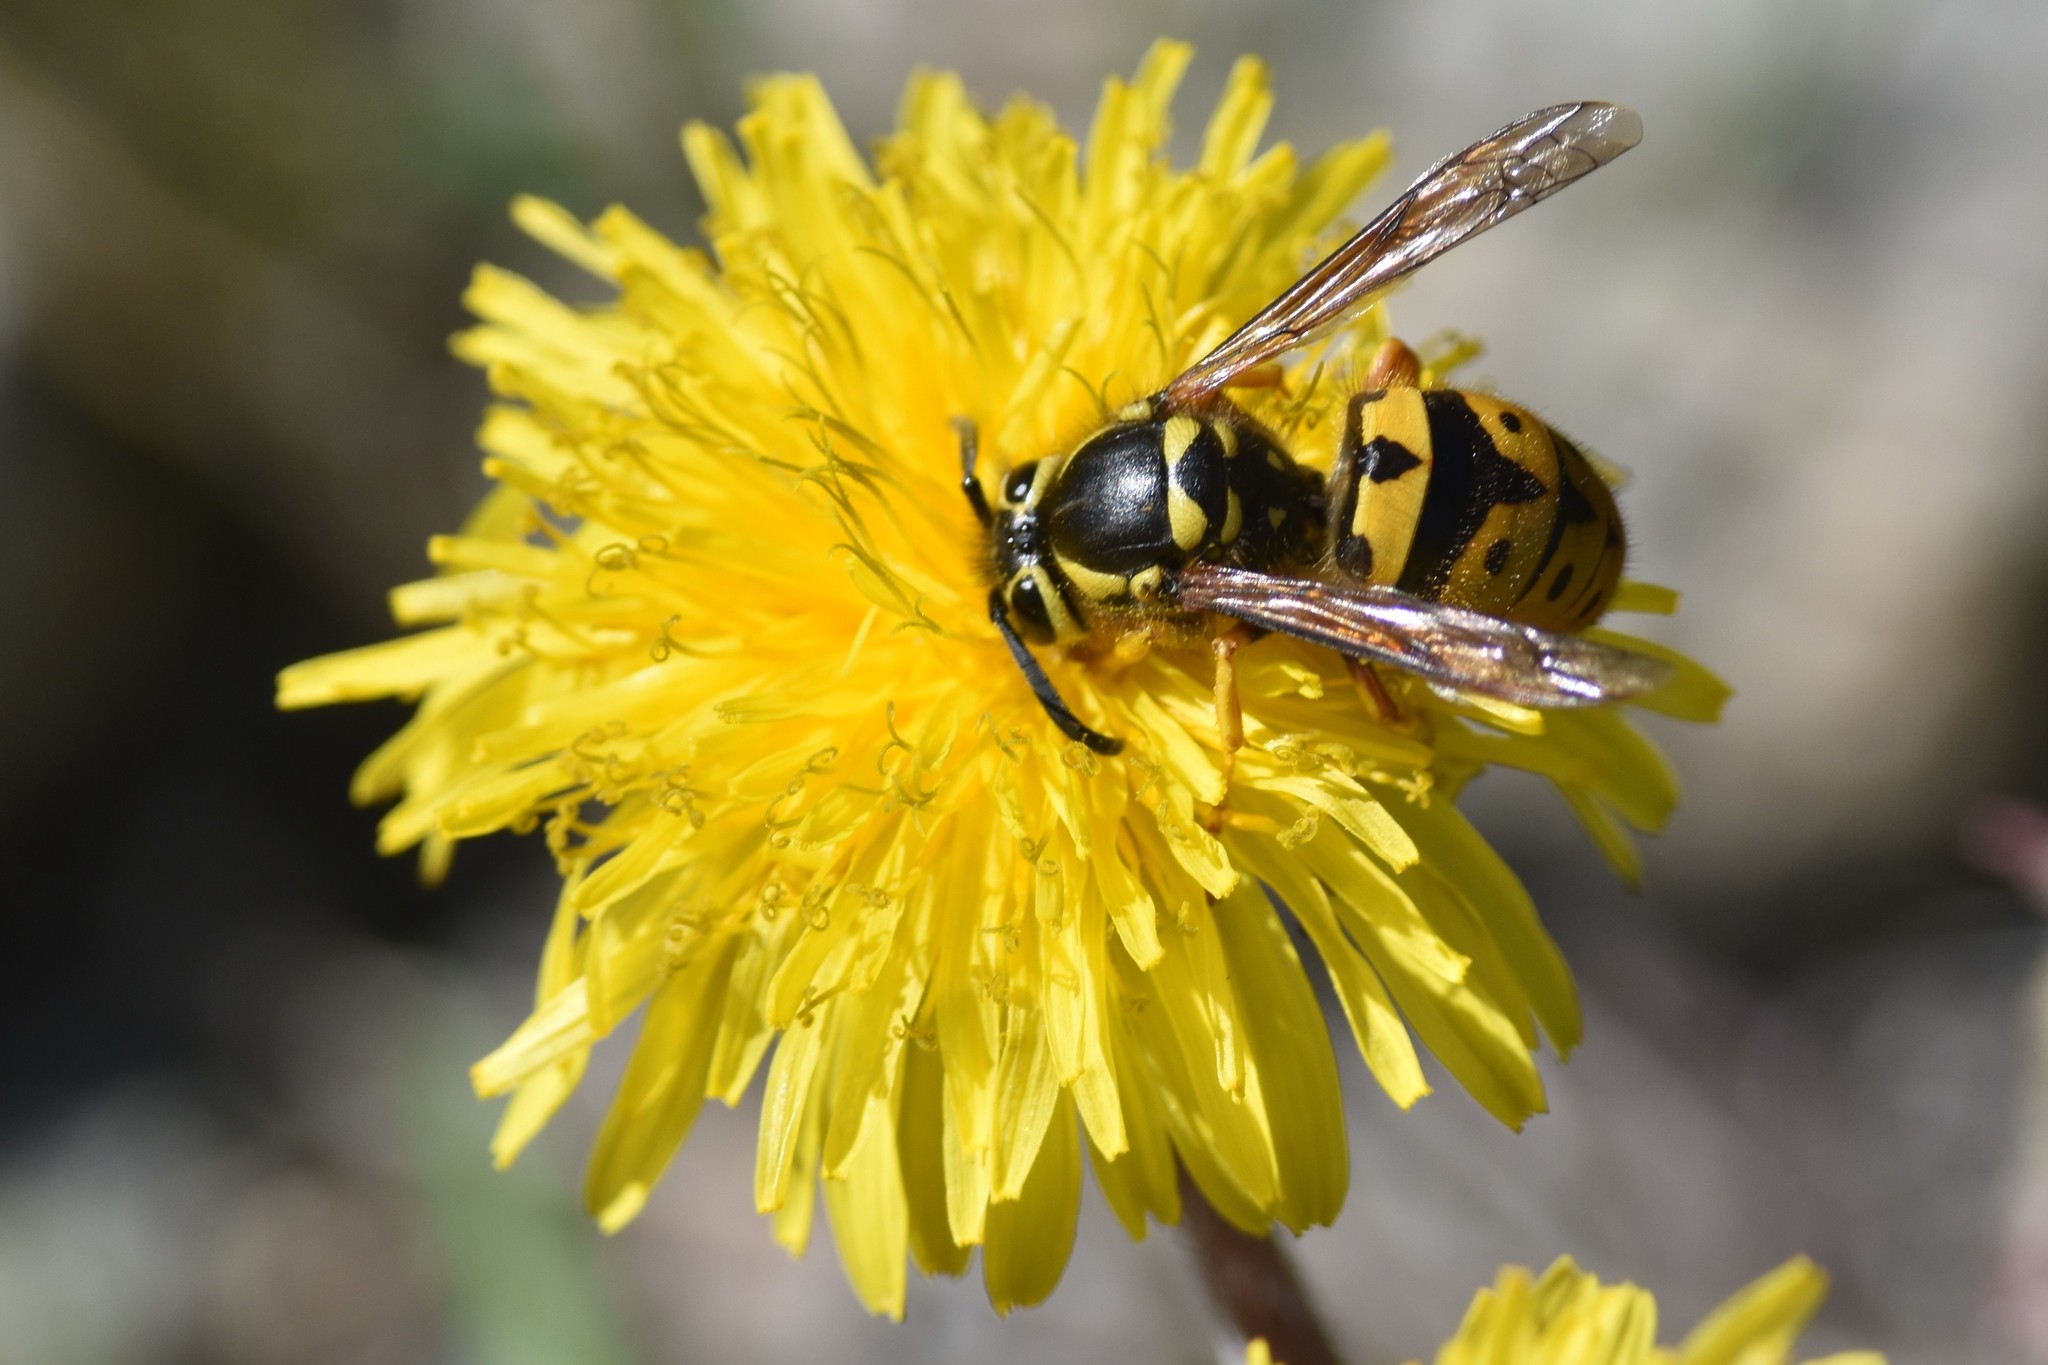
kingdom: Animalia
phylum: Arthropoda
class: Insecta
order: Hymenoptera
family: Vespidae
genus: Vespula
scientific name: Vespula pensylvanica
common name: Western yellowjacket
